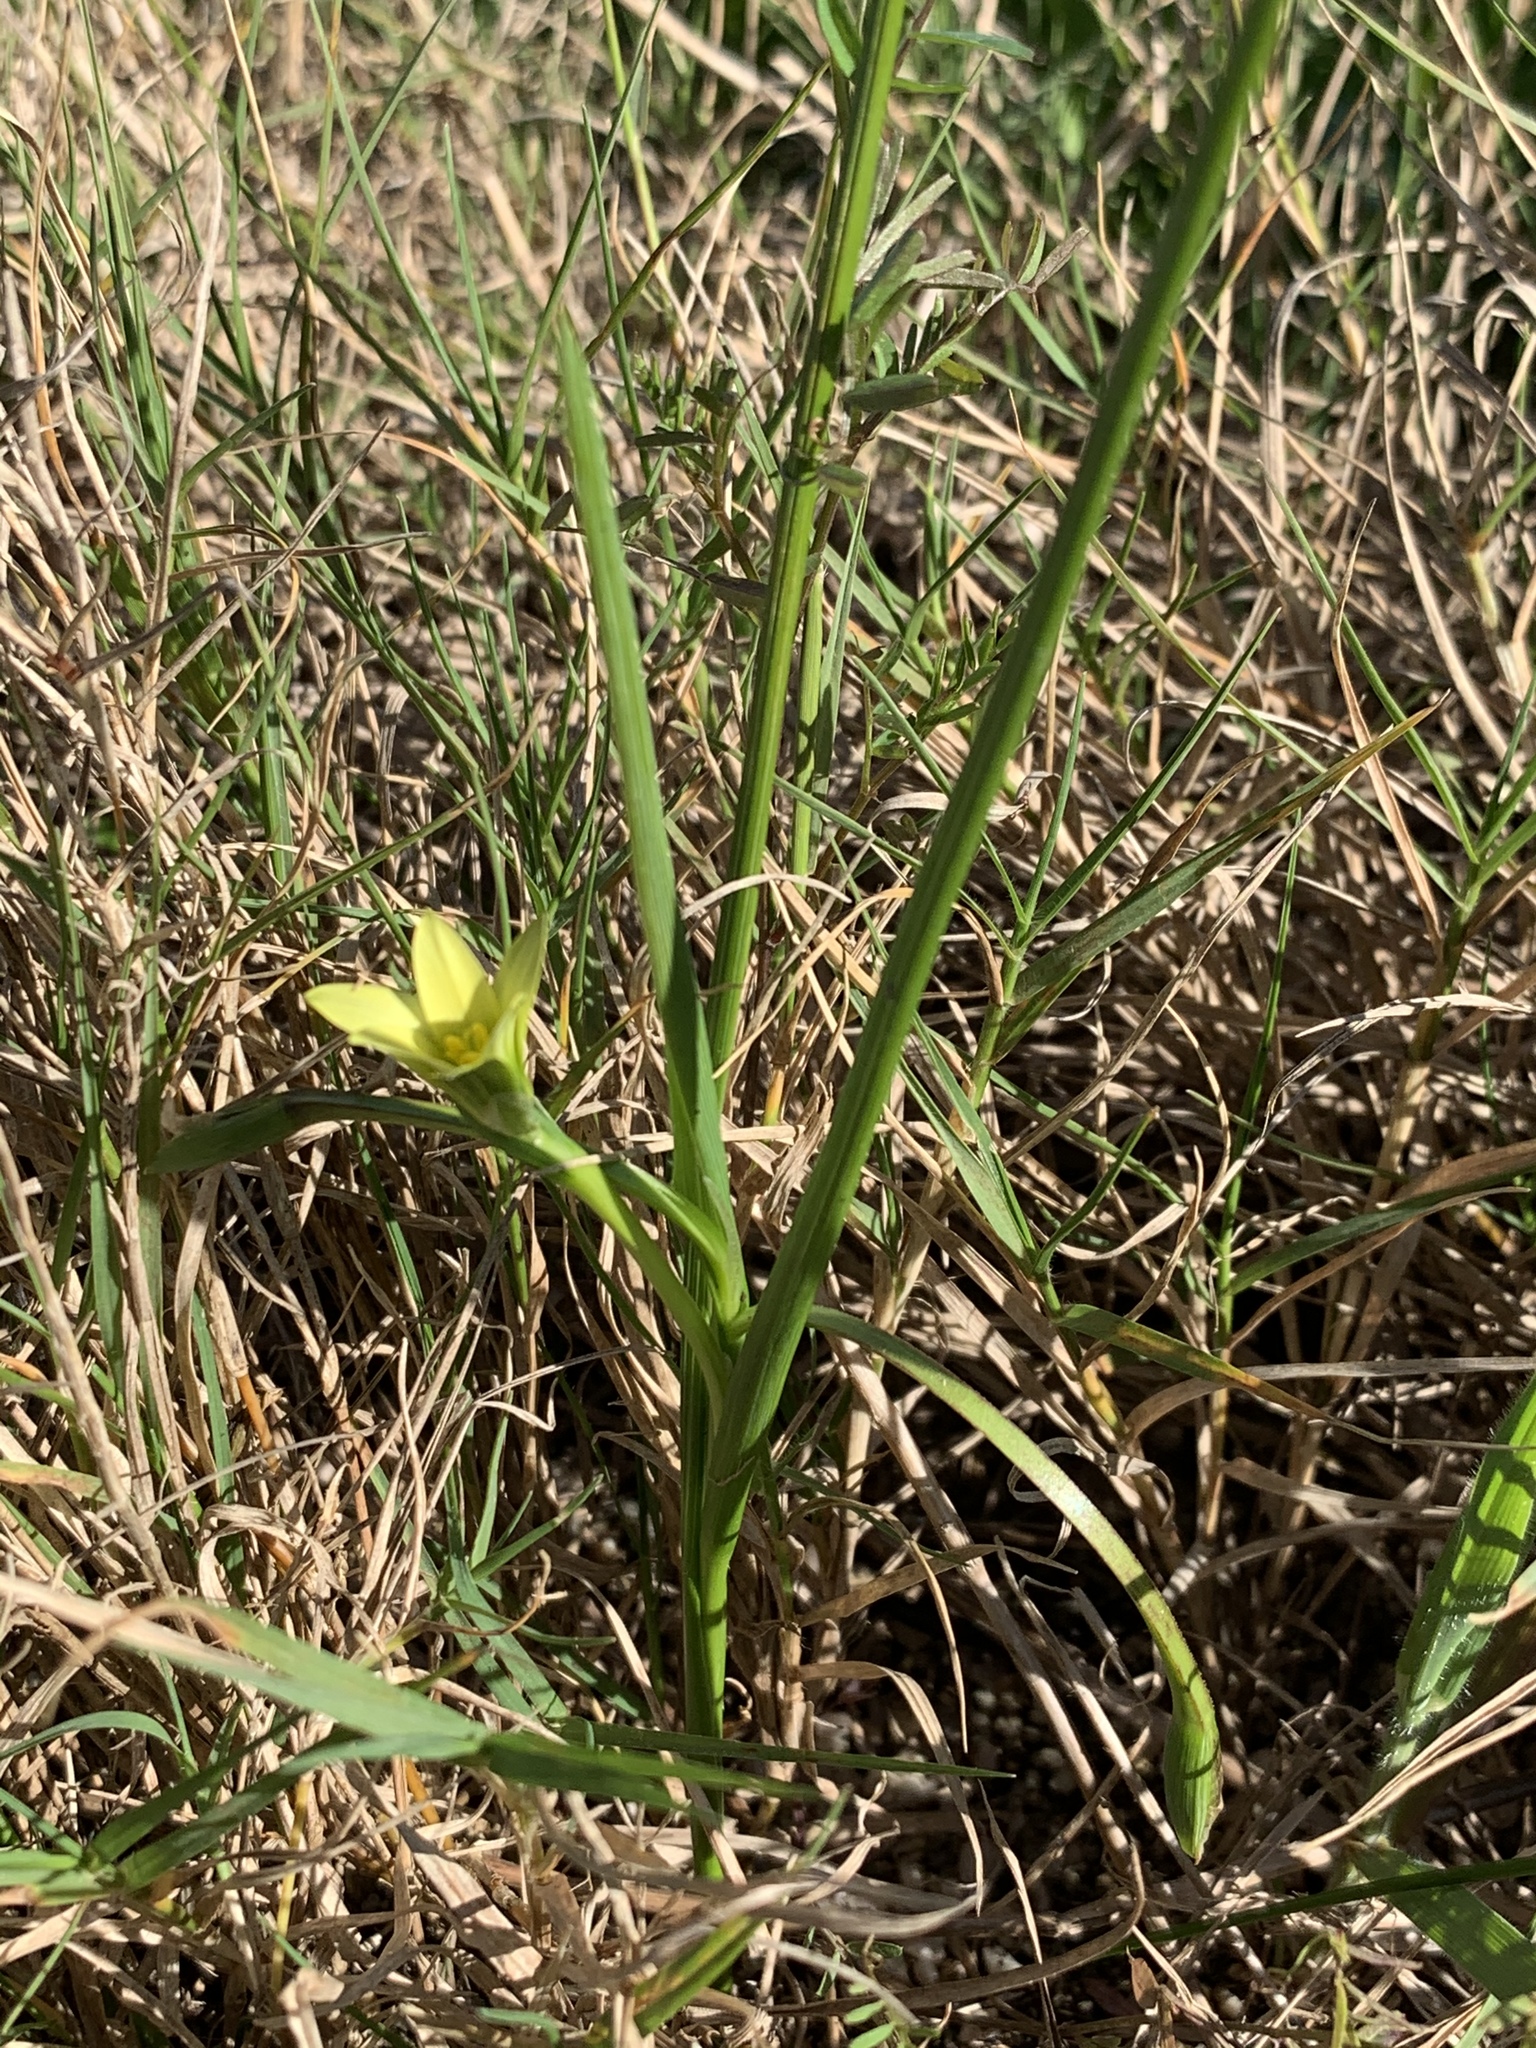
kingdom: Plantae
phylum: Tracheophyta
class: Liliopsida
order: Asparagales
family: Iridaceae
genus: Romulea
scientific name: Romulea flava
